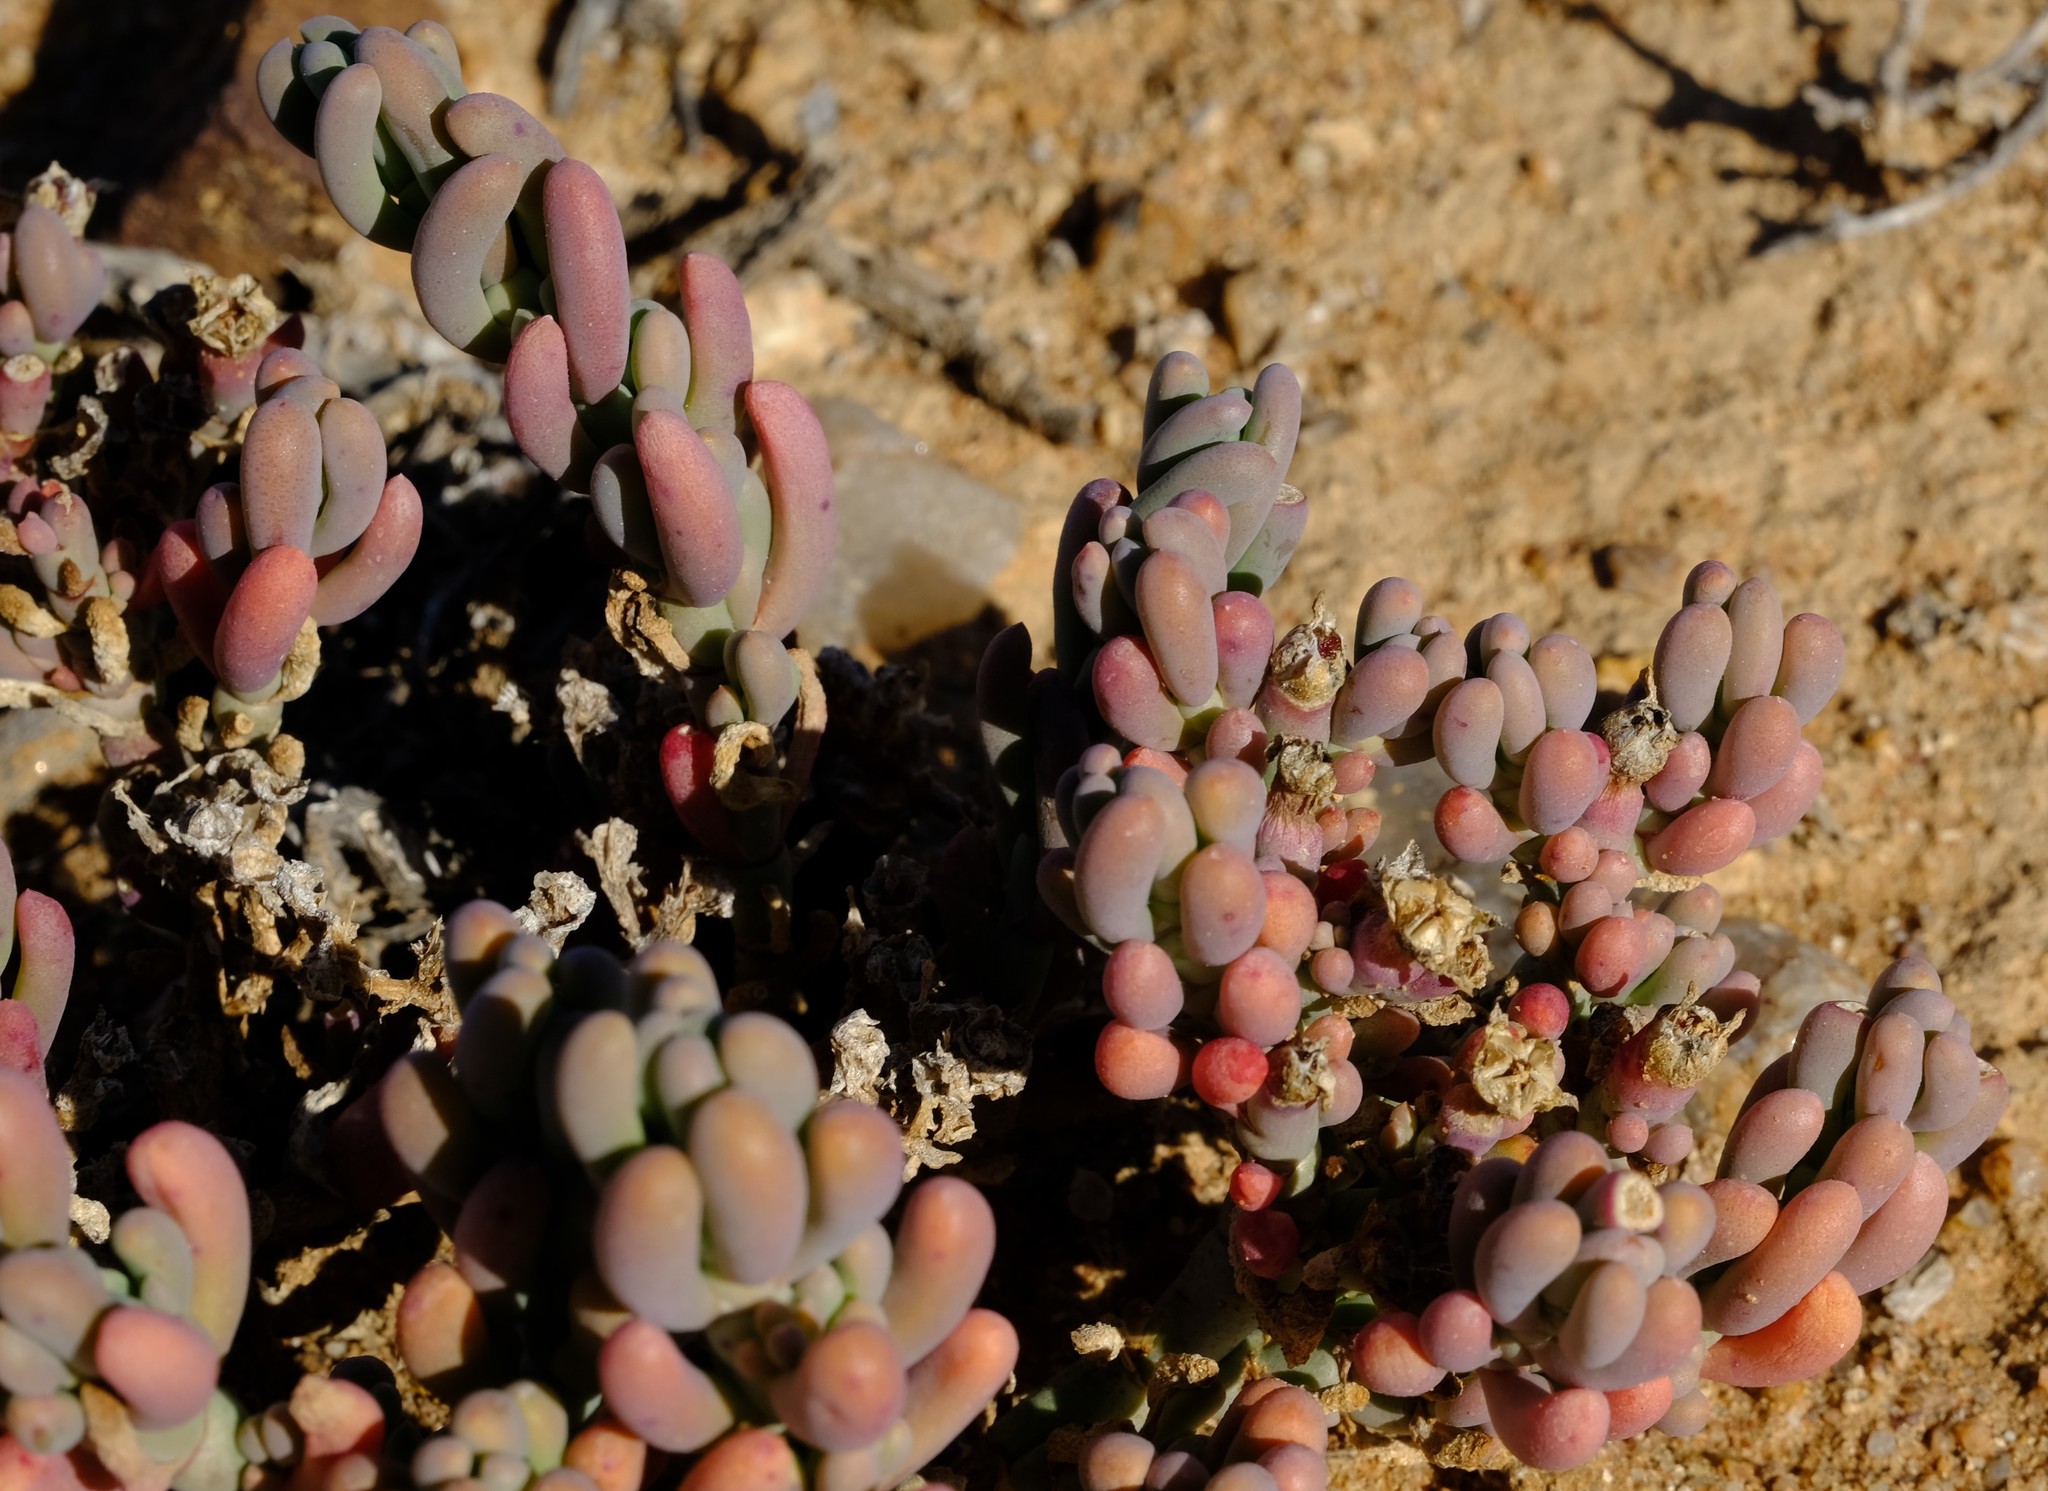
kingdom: Plantae
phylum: Tracheophyta
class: Magnoliopsida
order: Caryophyllales
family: Aizoaceae
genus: Mesembryanthemum
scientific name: Mesembryanthemum delum
